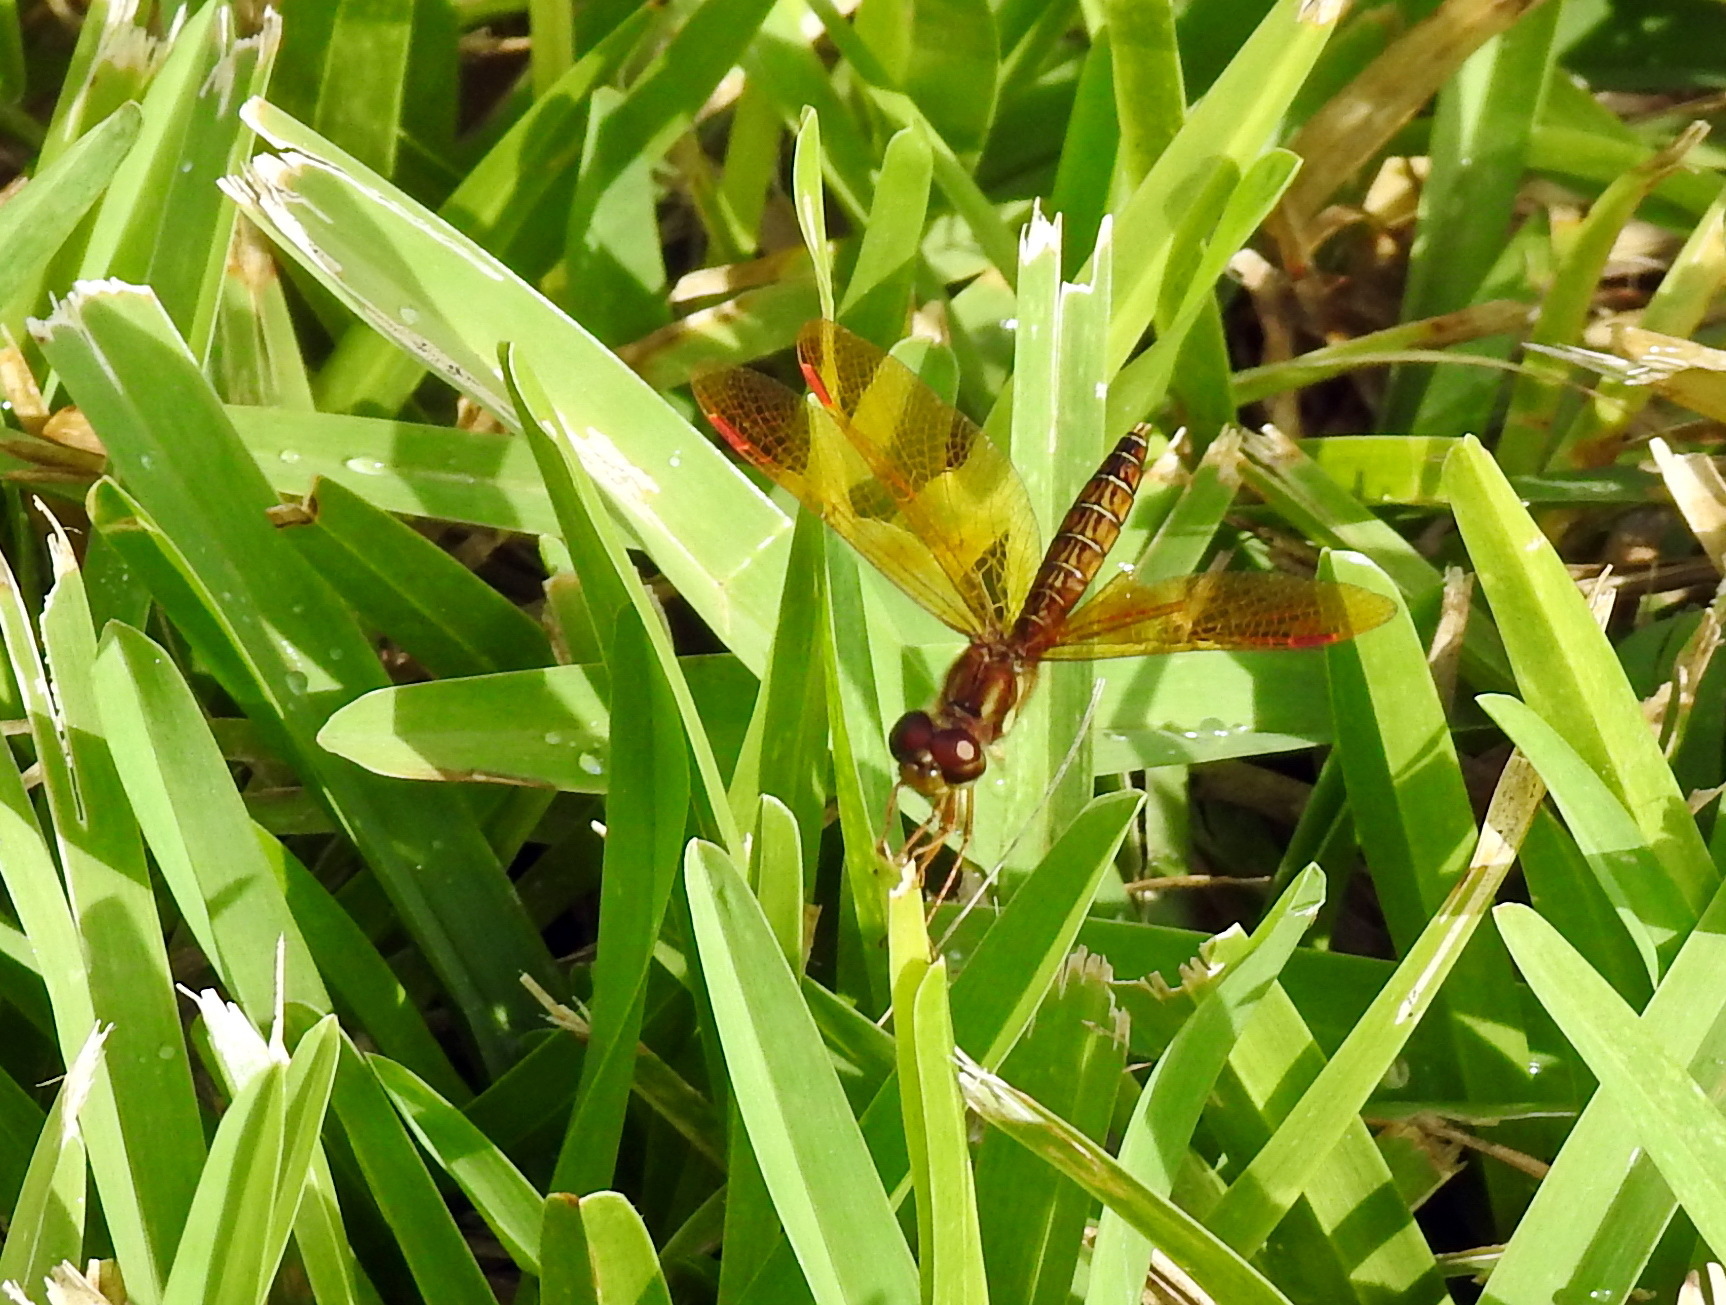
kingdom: Animalia
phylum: Arthropoda
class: Insecta
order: Odonata
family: Libellulidae
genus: Perithemis
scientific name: Perithemis tenera
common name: Eastern amberwing
